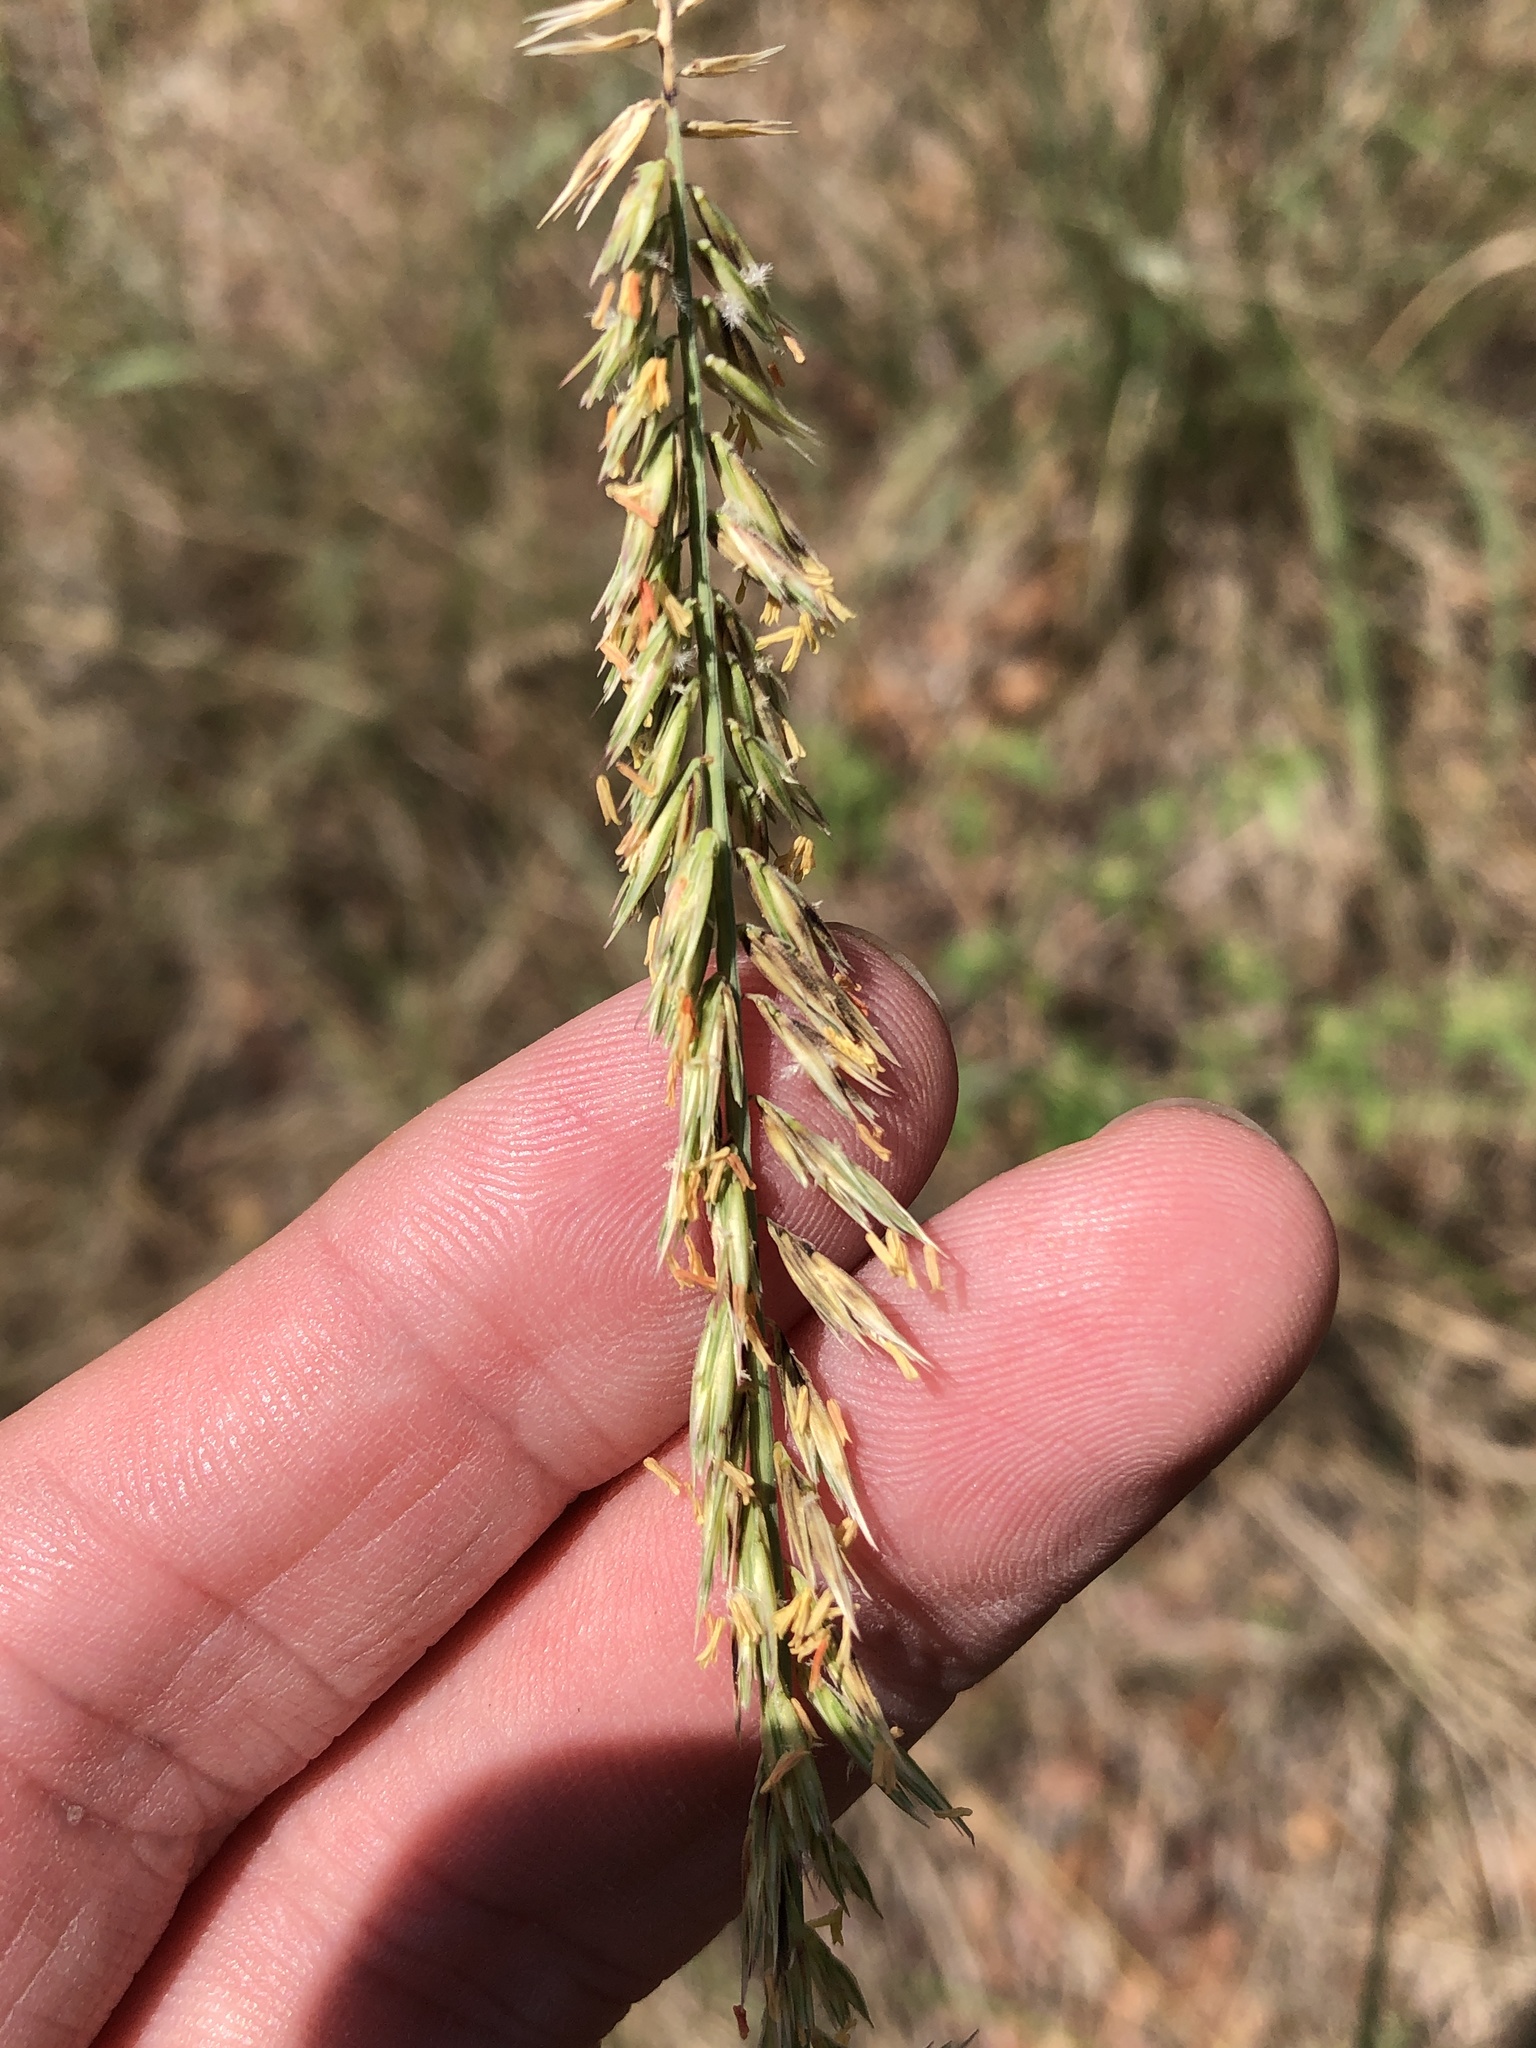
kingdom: Plantae
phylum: Tracheophyta
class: Liliopsida
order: Poales
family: Poaceae
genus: Bouteloua
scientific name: Bouteloua curtipendula
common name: Side-oats grama
